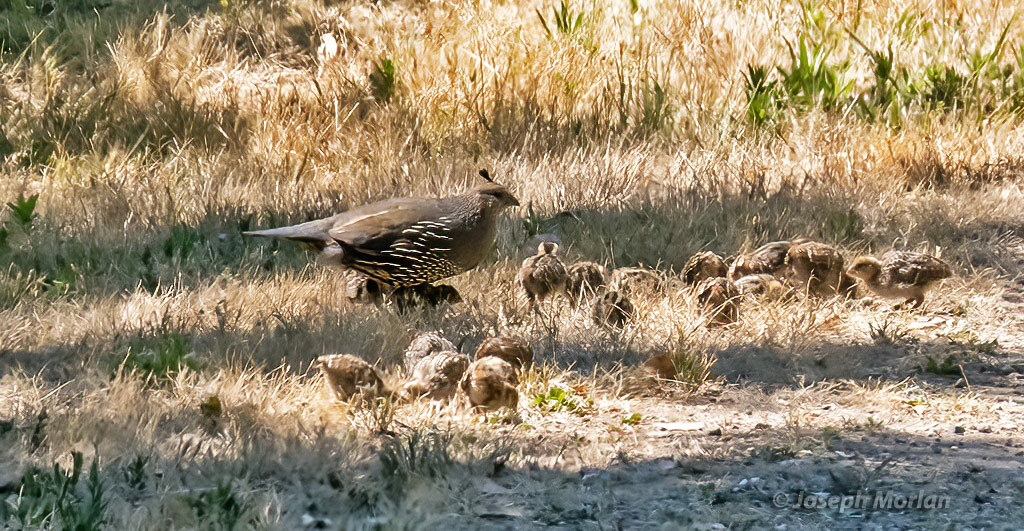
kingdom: Animalia
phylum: Chordata
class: Aves
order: Galliformes
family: Odontophoridae
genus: Callipepla
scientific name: Callipepla californica
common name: California quail
